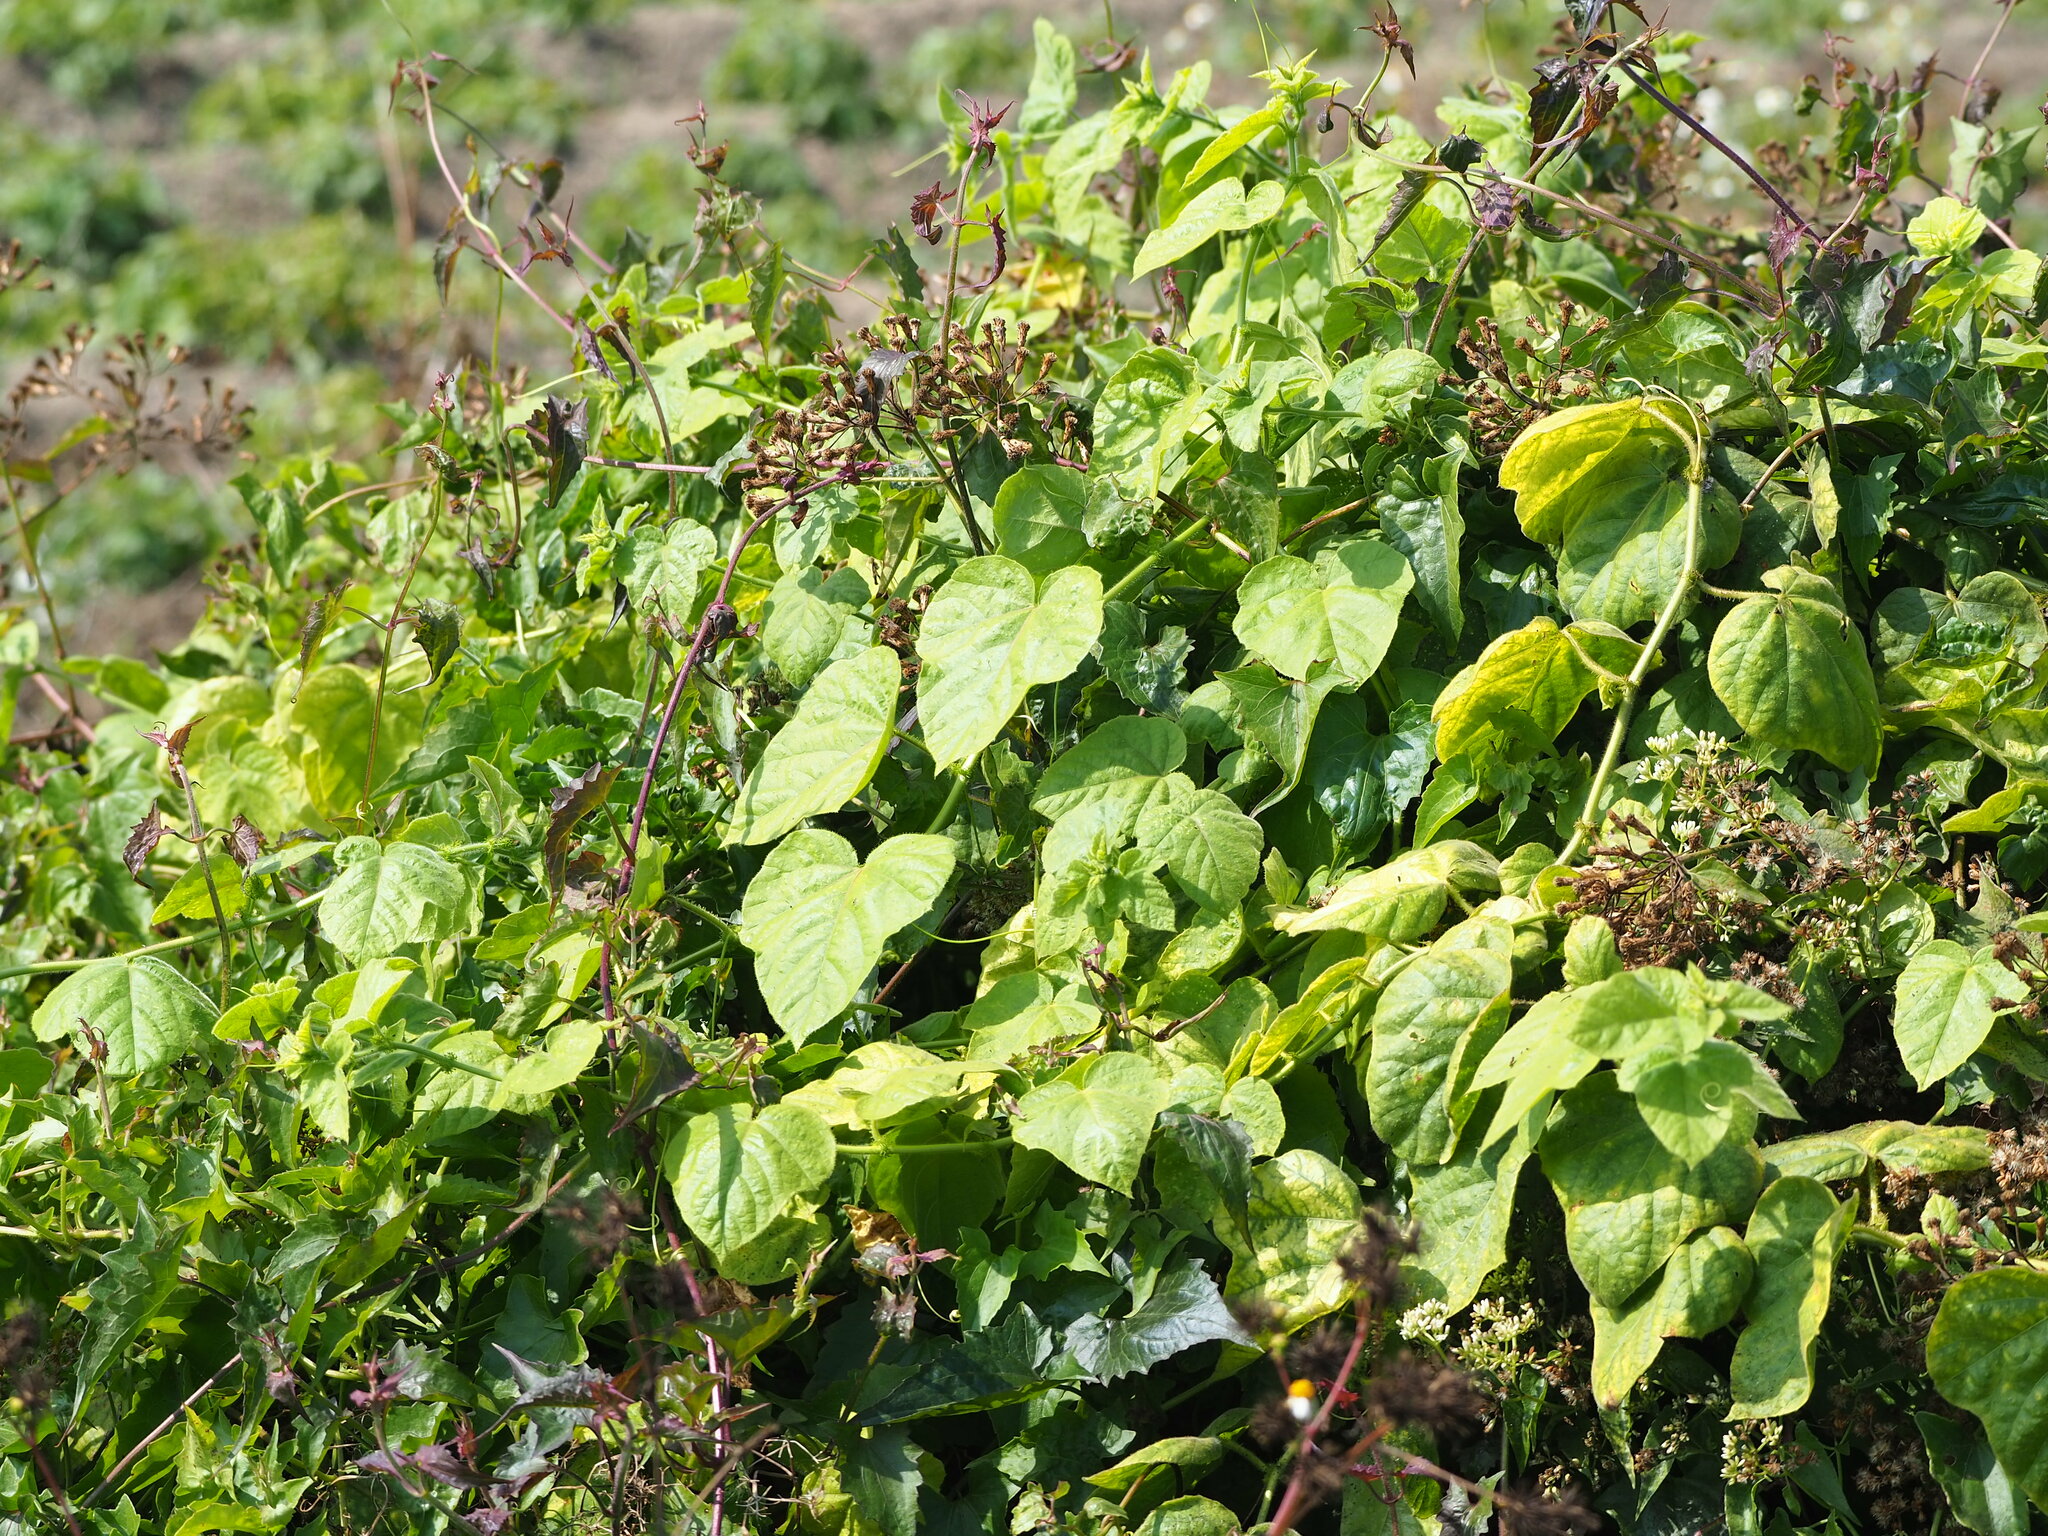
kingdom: Plantae
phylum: Tracheophyta
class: Magnoliopsida
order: Malpighiales
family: Passifloraceae
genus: Passiflora
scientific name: Passiflora vesicaria
